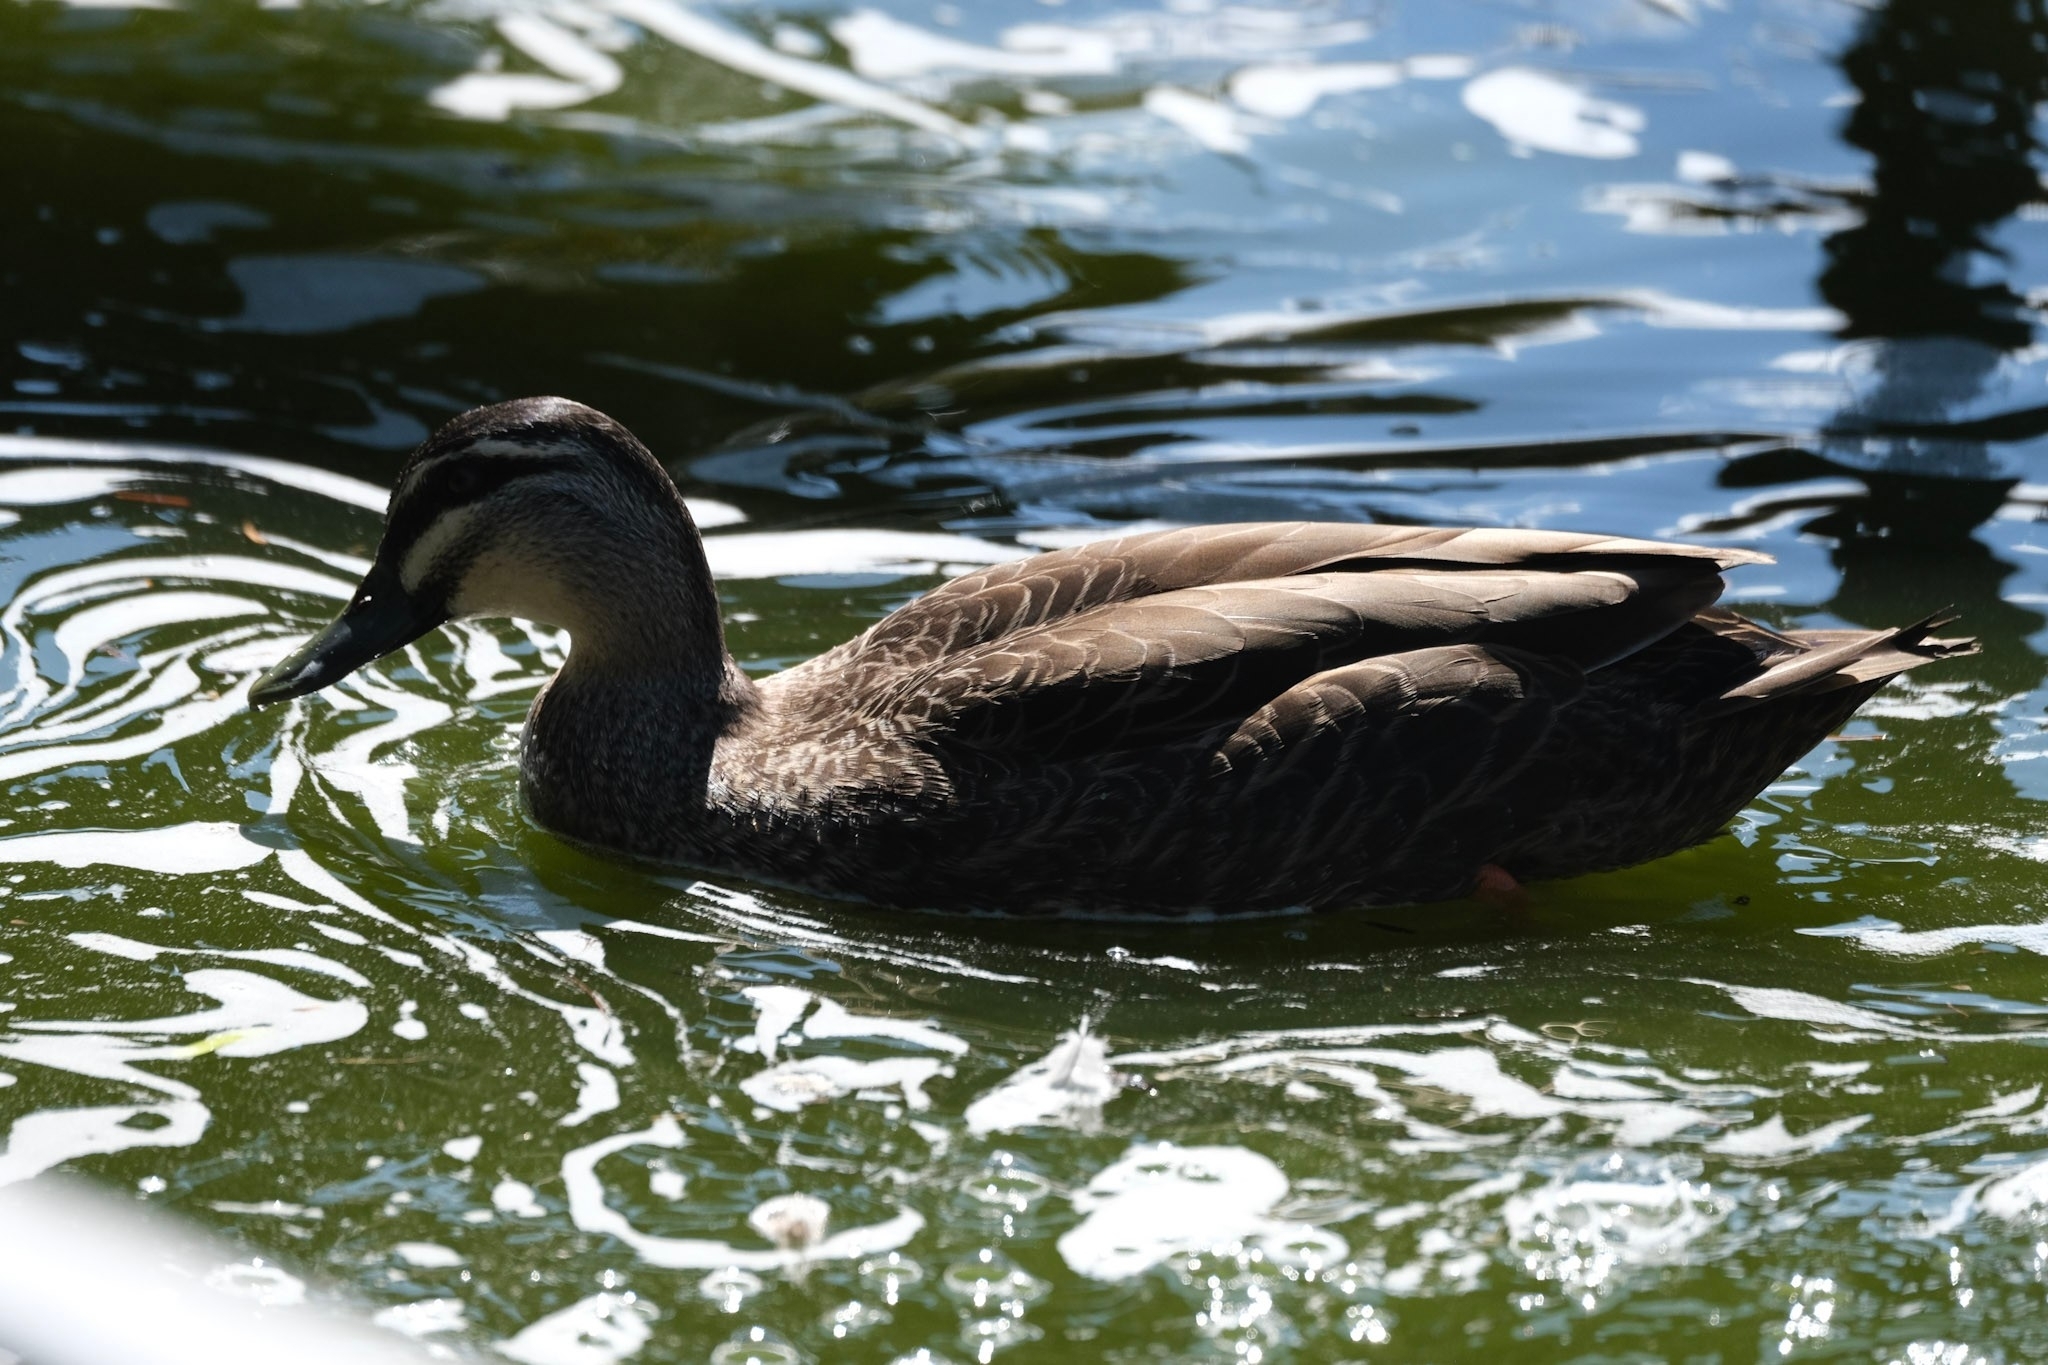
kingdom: Animalia
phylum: Chordata
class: Aves
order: Anseriformes
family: Anatidae
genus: Anas
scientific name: Anas
